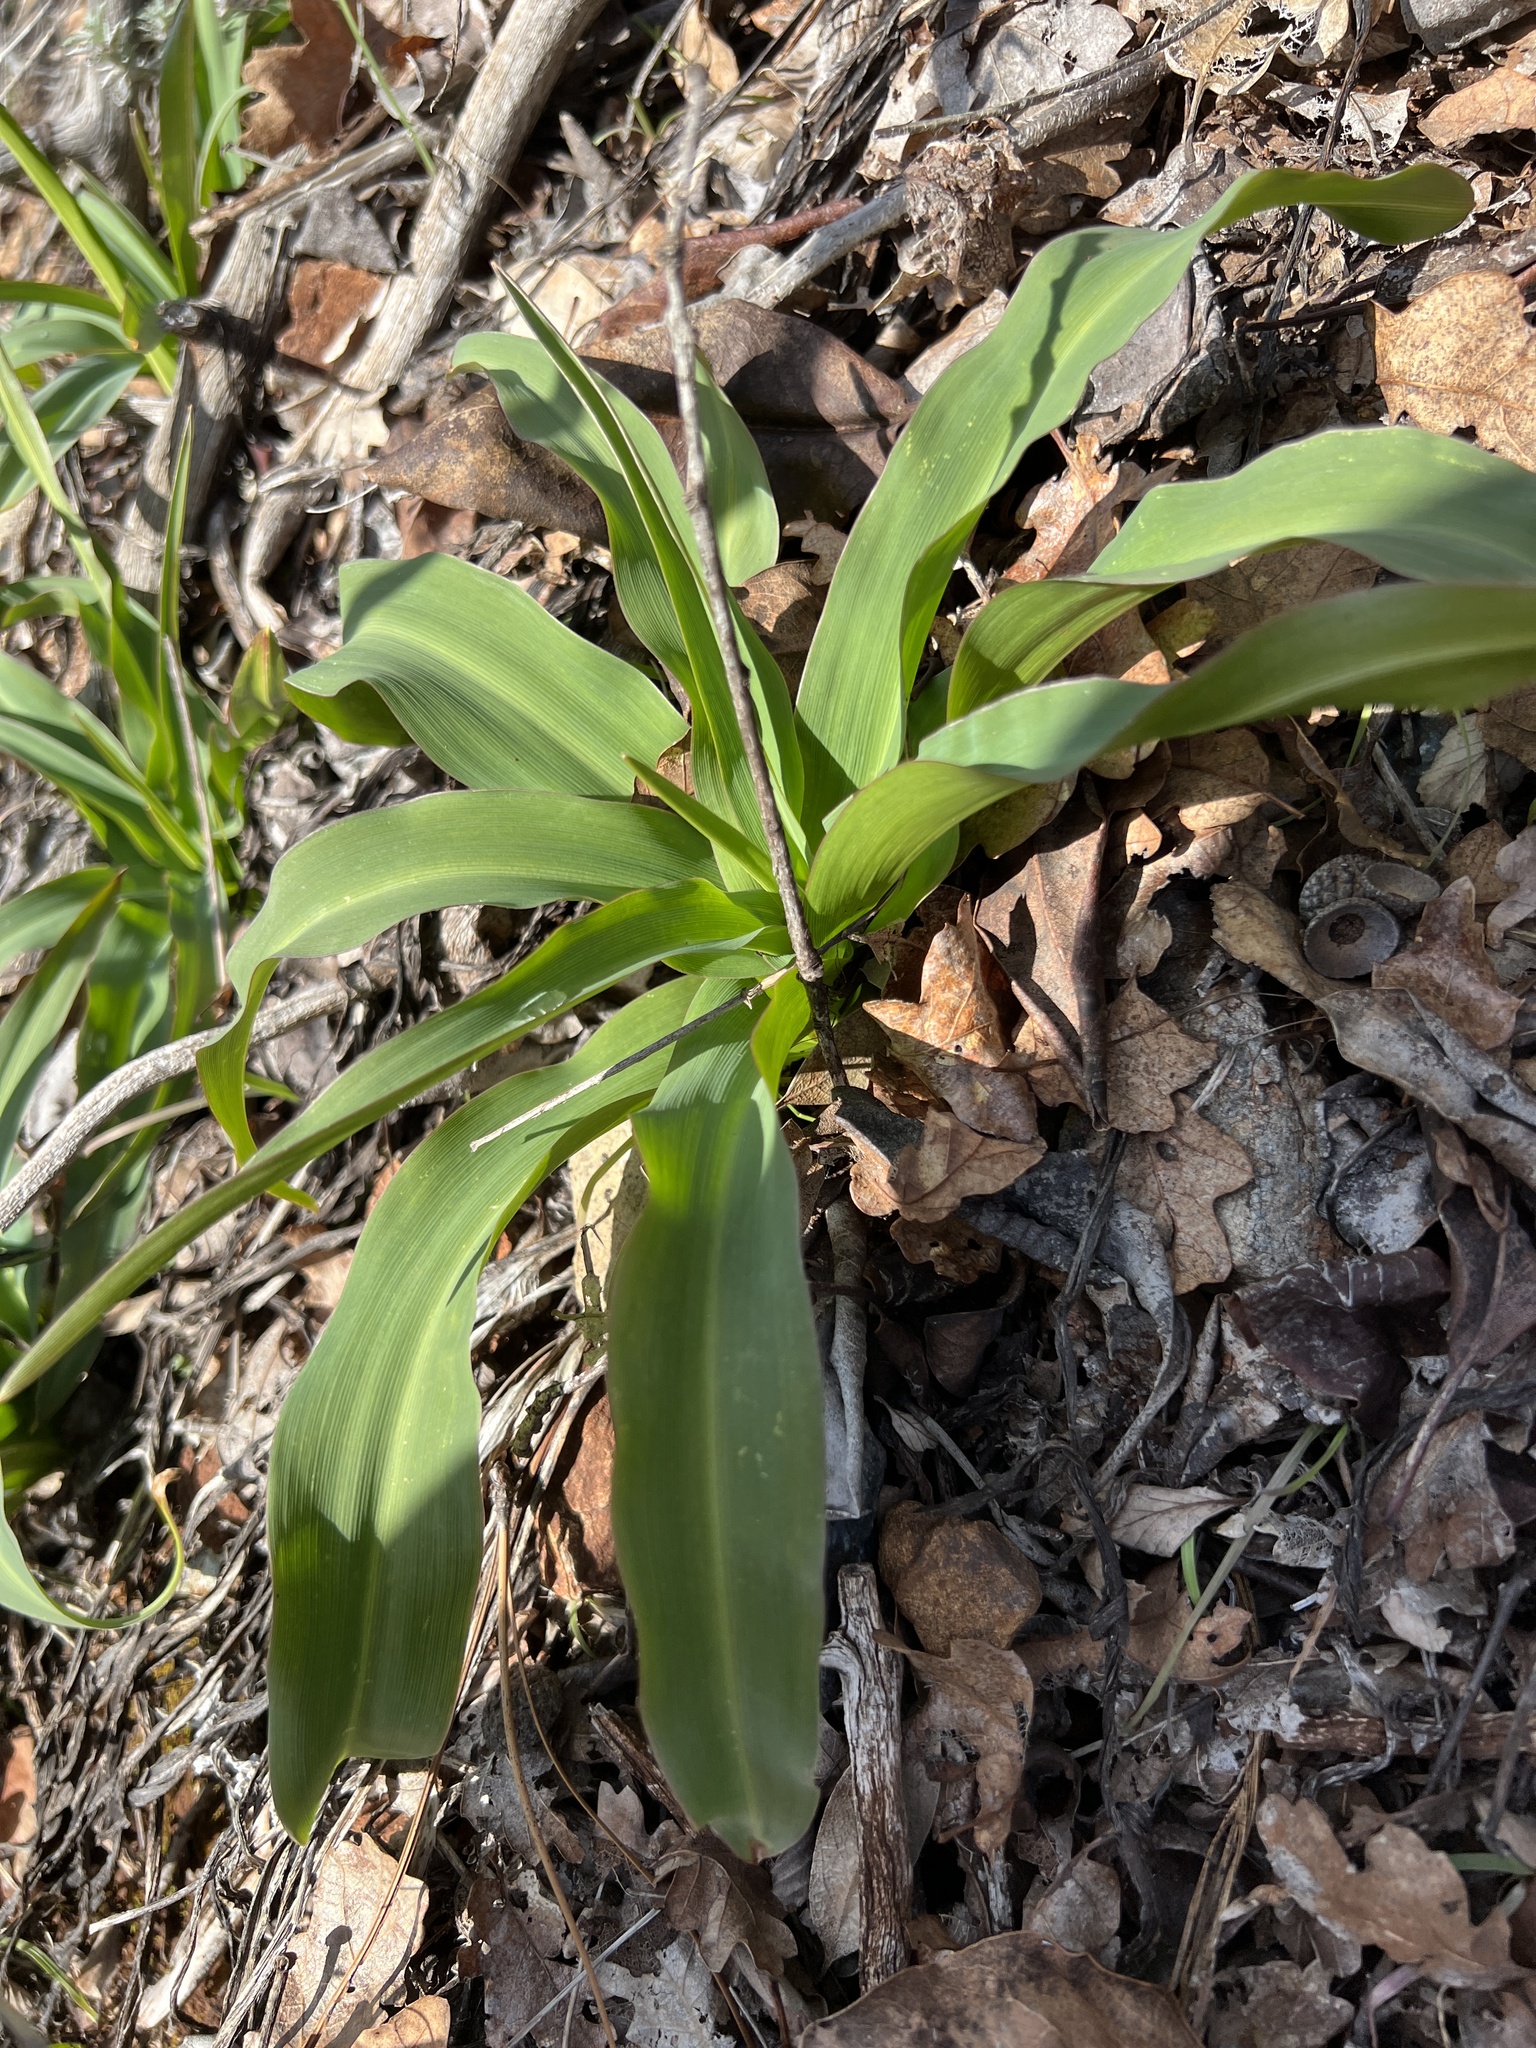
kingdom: Plantae
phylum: Tracheophyta
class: Liliopsida
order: Asparagales
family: Asparagaceae
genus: Chlorogalum
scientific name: Chlorogalum pomeridianum
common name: Amole
